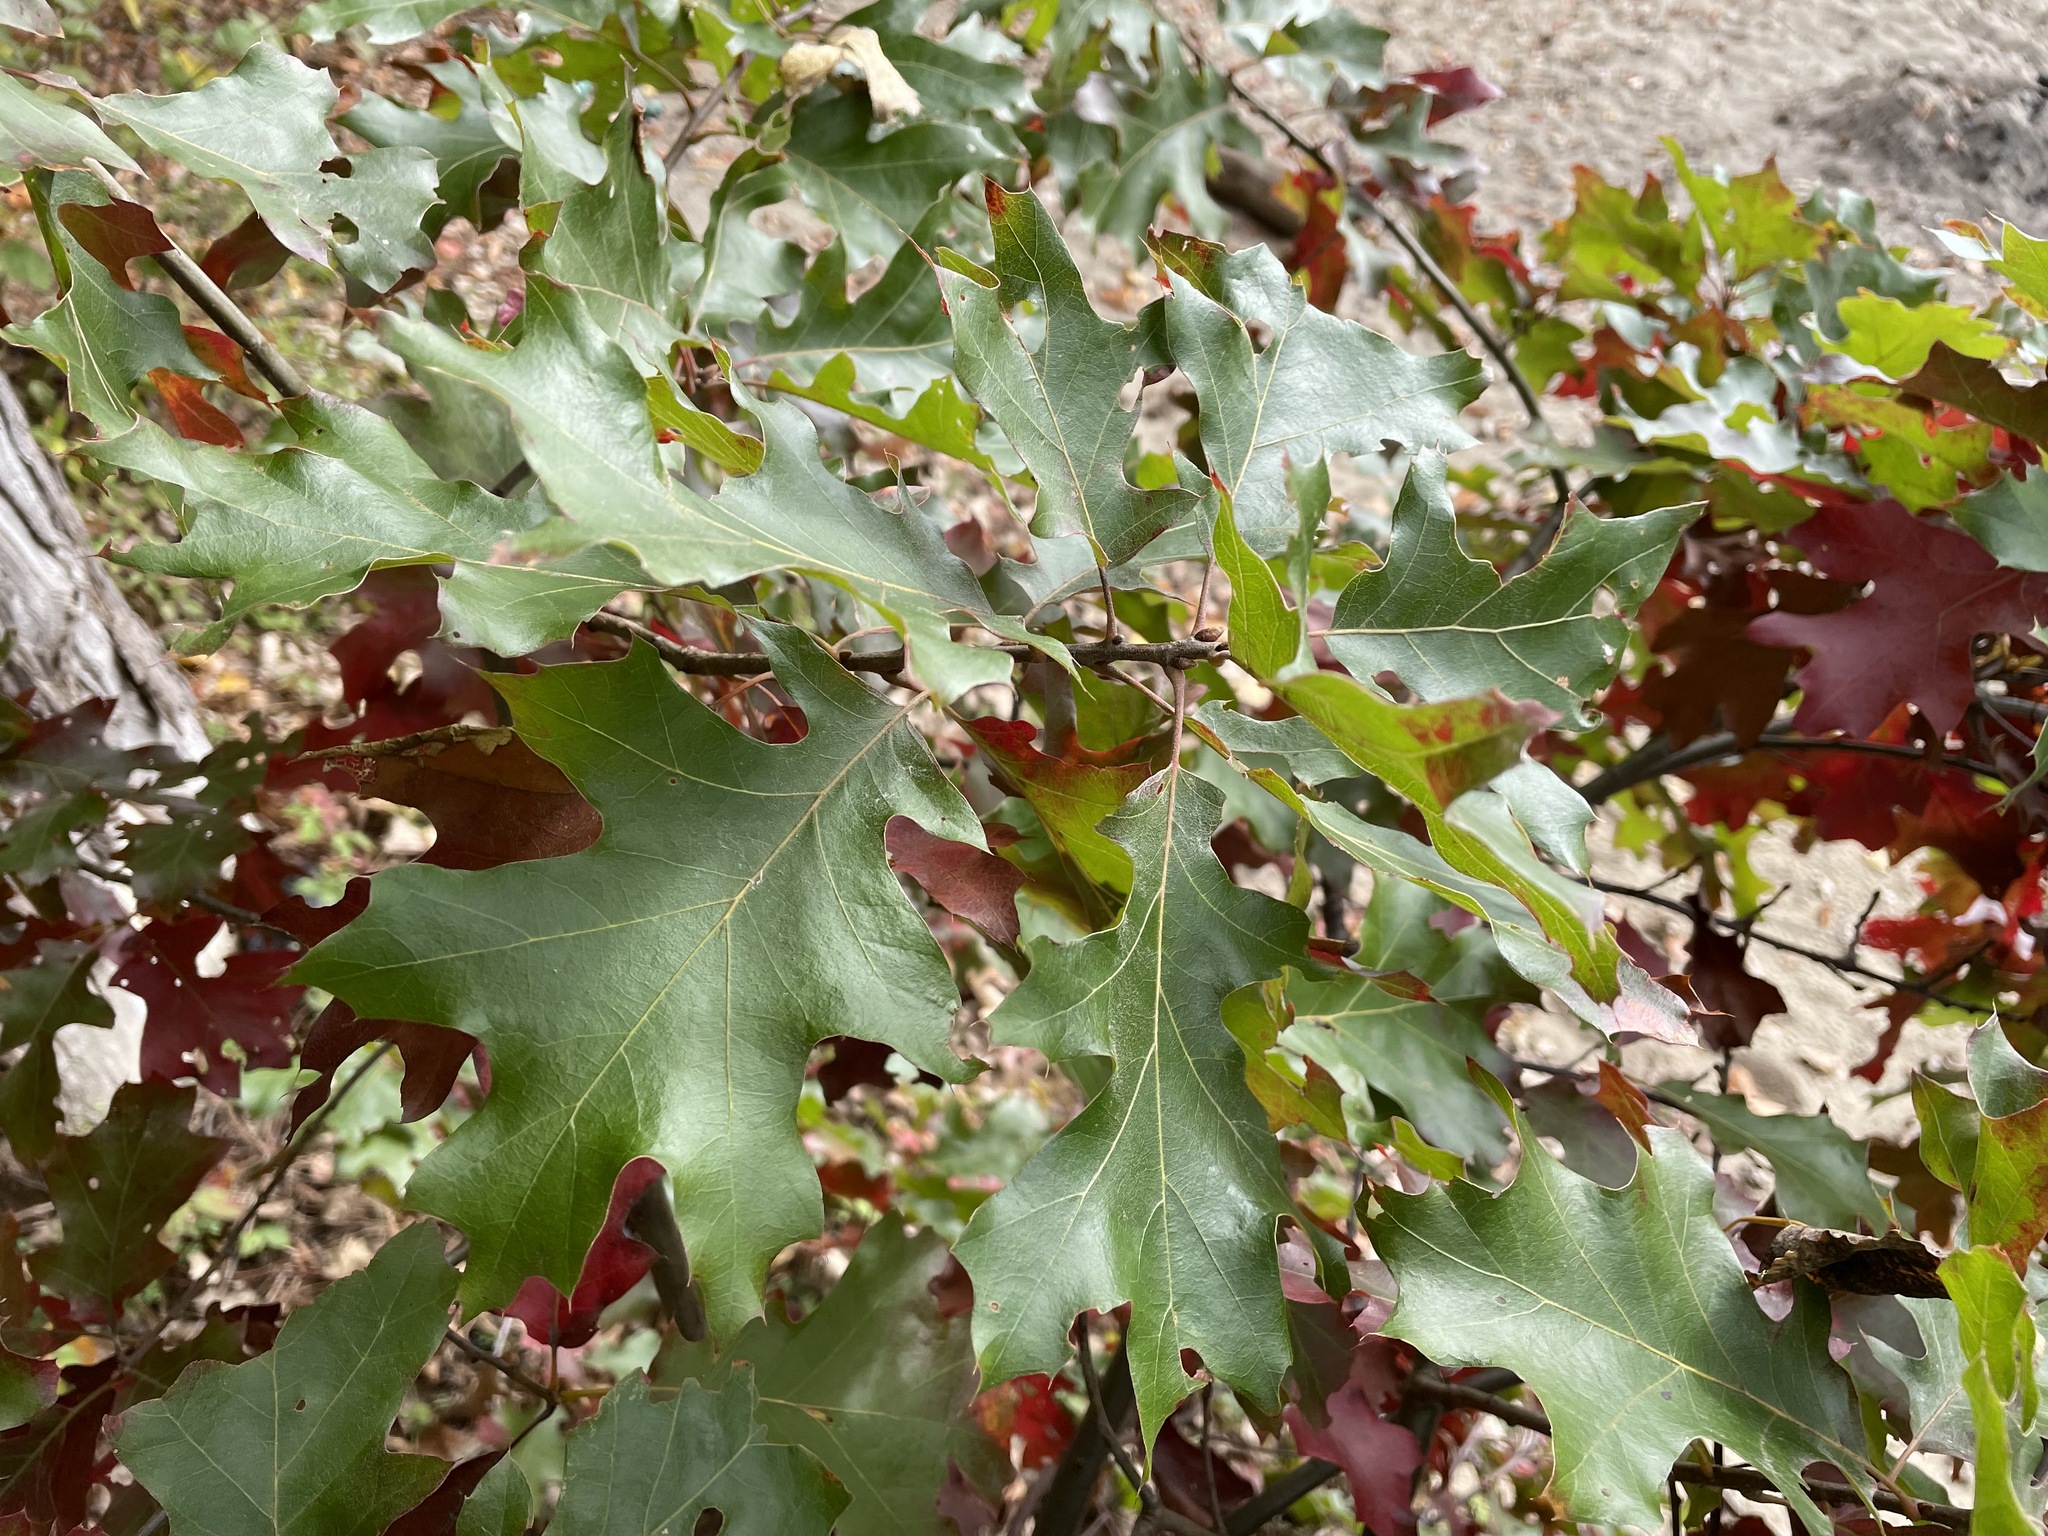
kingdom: Plantae
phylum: Tracheophyta
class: Magnoliopsida
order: Fagales
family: Fagaceae
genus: Quercus
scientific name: Quercus velutina
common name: Black oak
